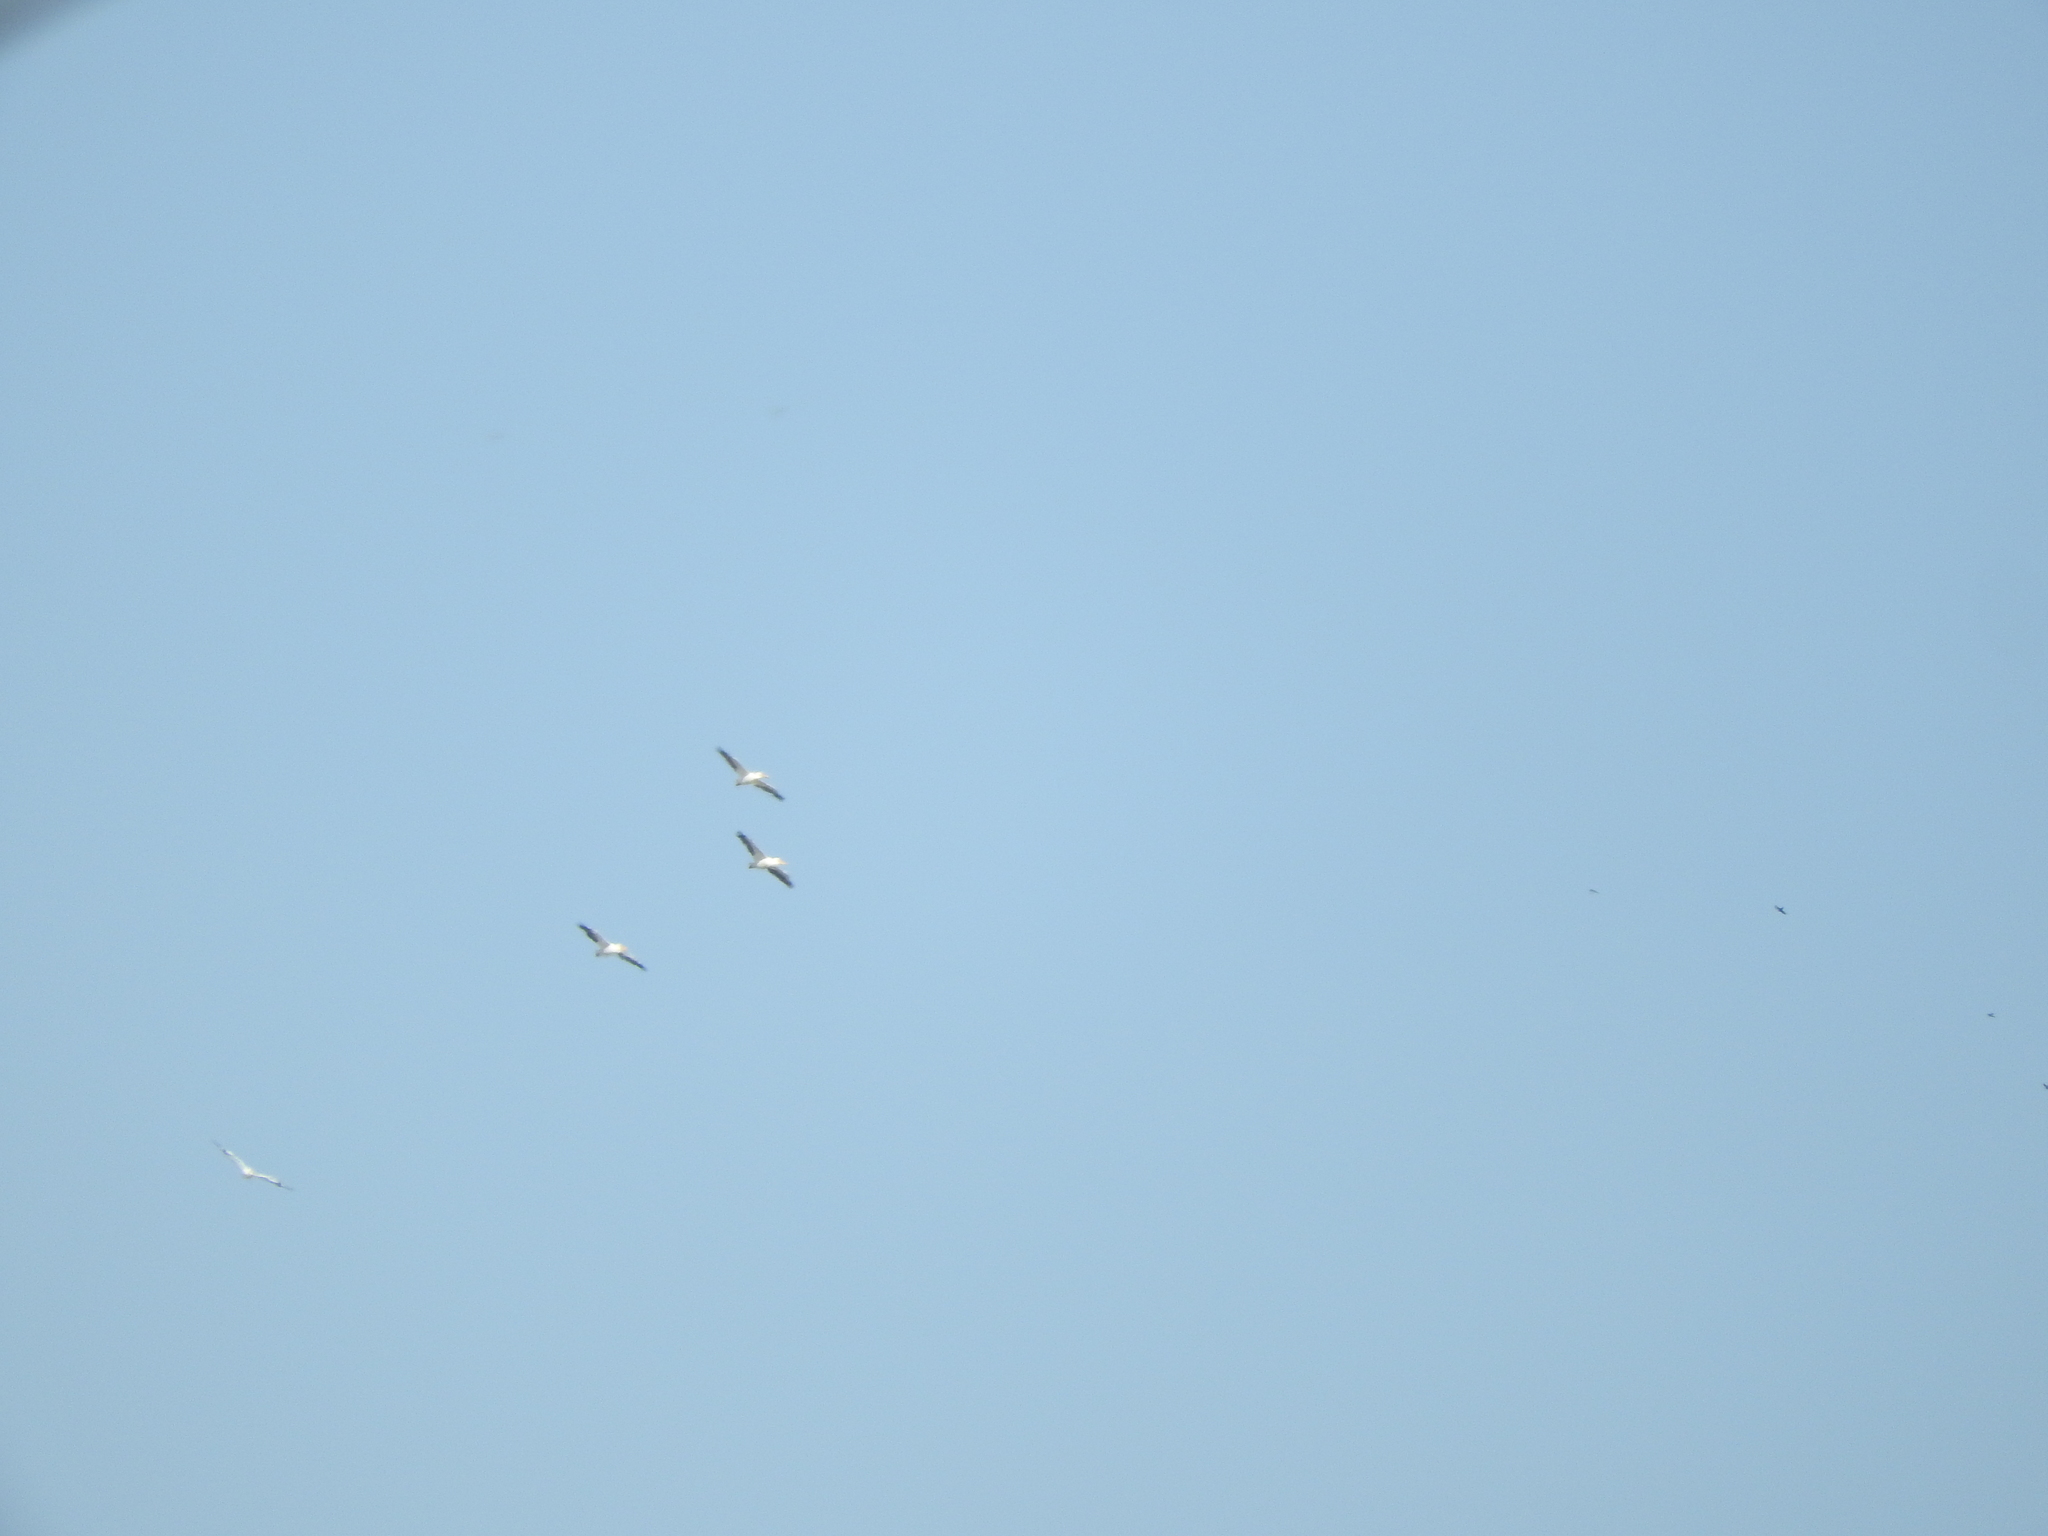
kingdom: Animalia
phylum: Chordata
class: Aves
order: Pelecaniformes
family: Pelecanidae
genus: Pelecanus
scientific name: Pelecanus erythrorhynchos
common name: American white pelican
